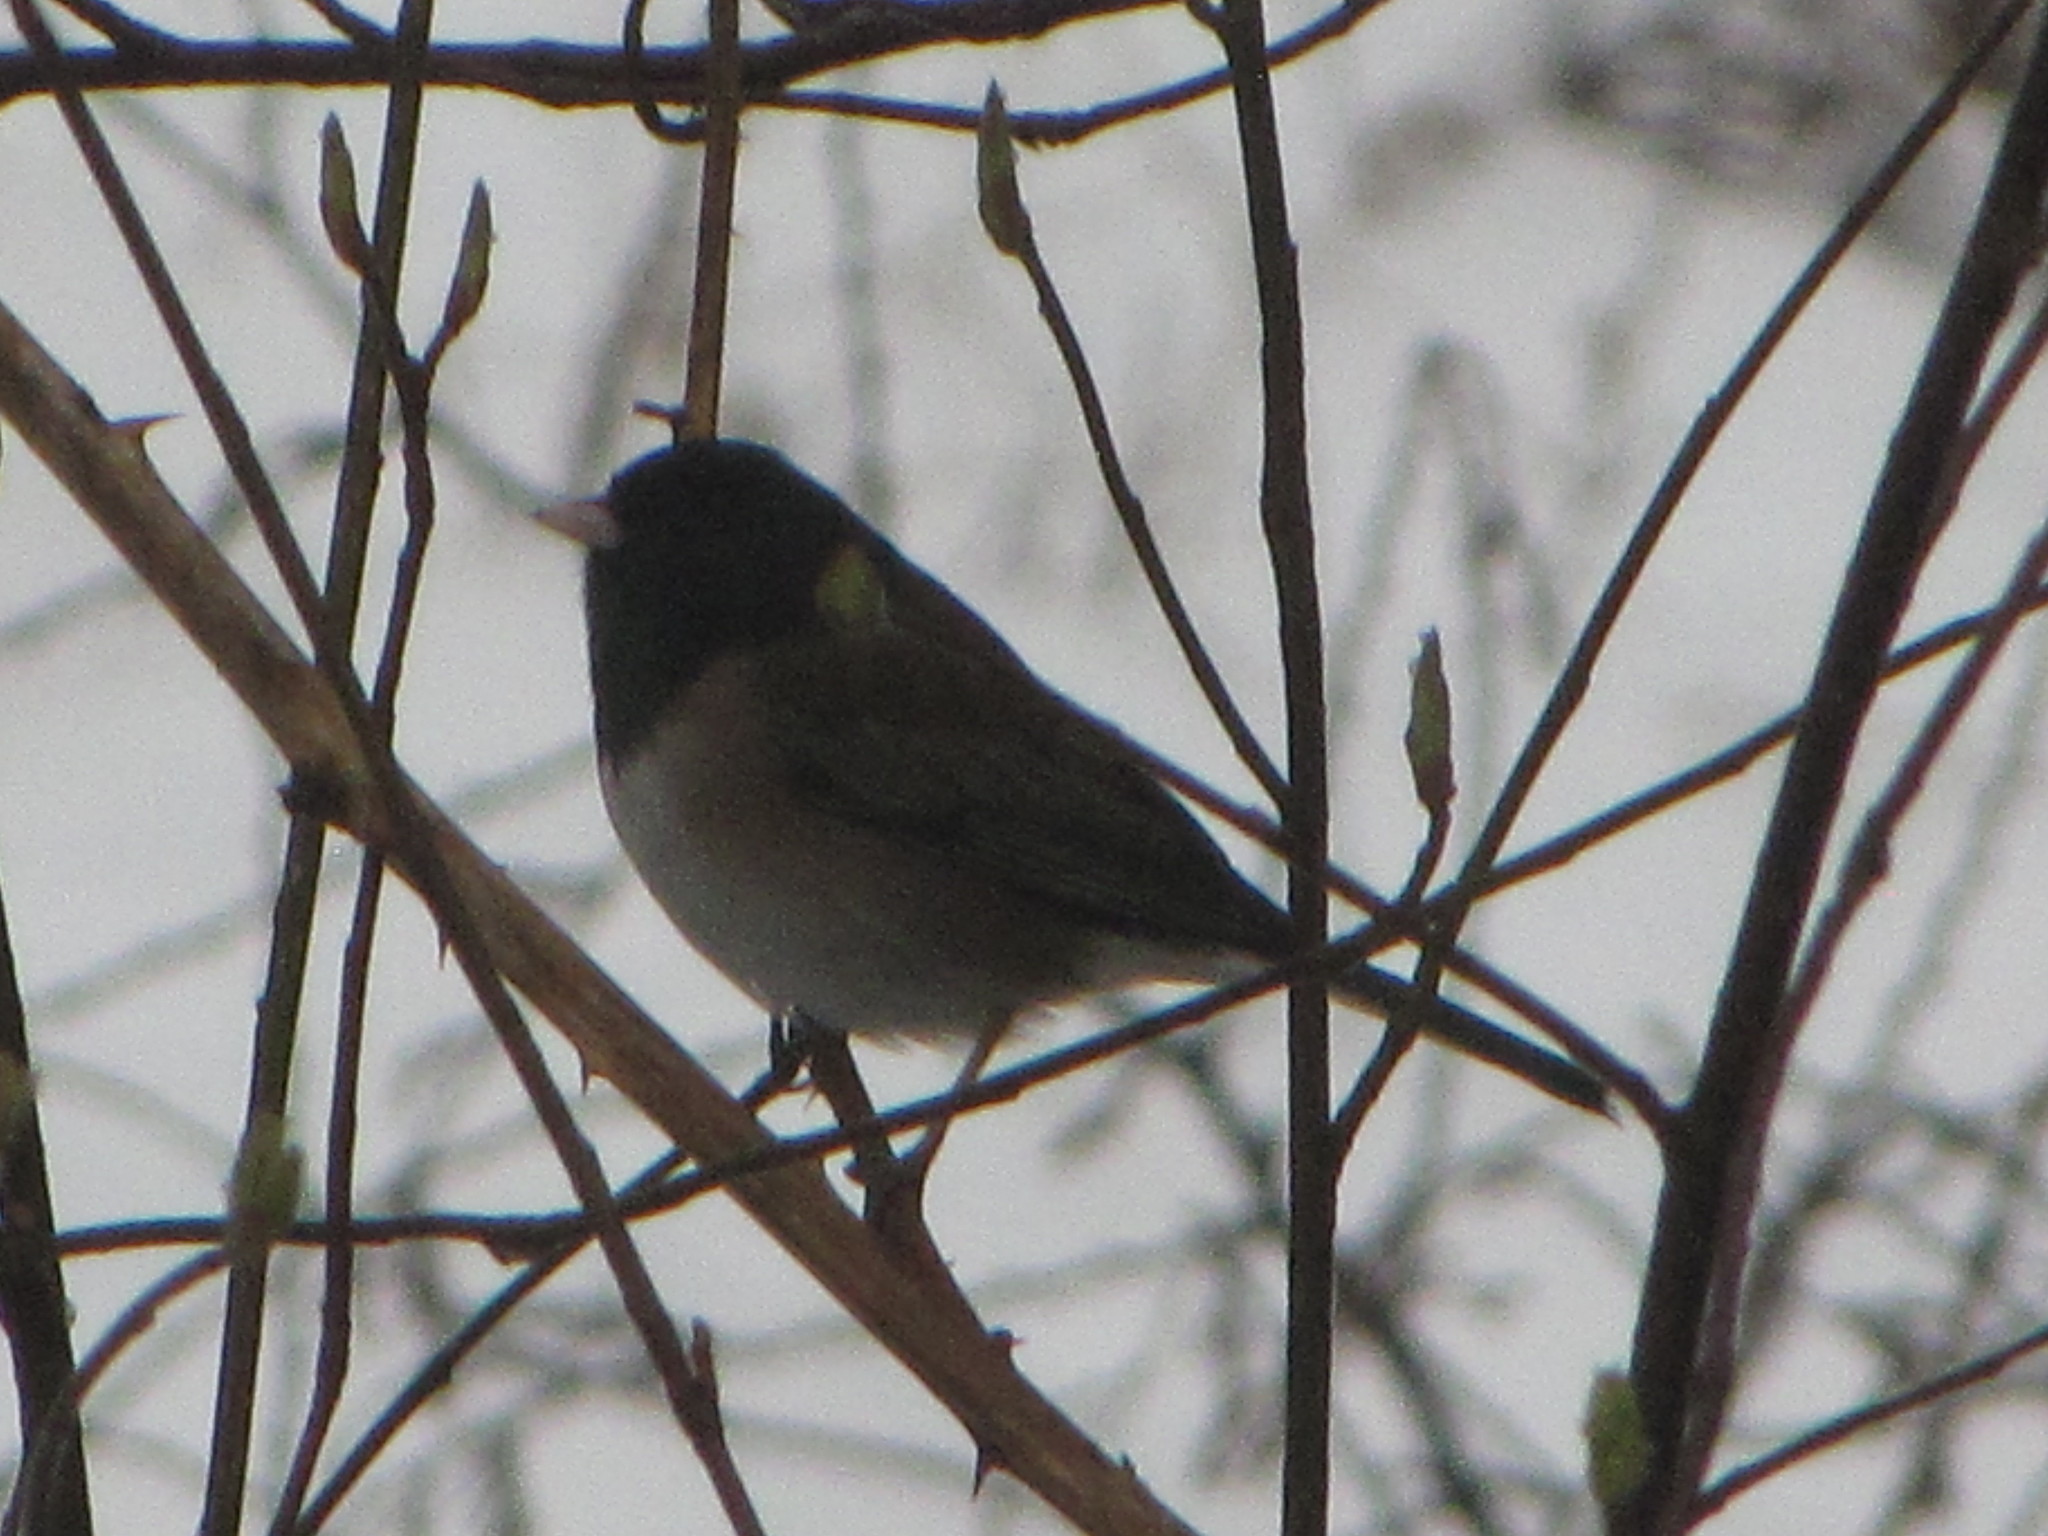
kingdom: Animalia
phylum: Chordata
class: Aves
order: Passeriformes
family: Passerellidae
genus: Junco
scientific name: Junco hyemalis
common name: Dark-eyed junco
